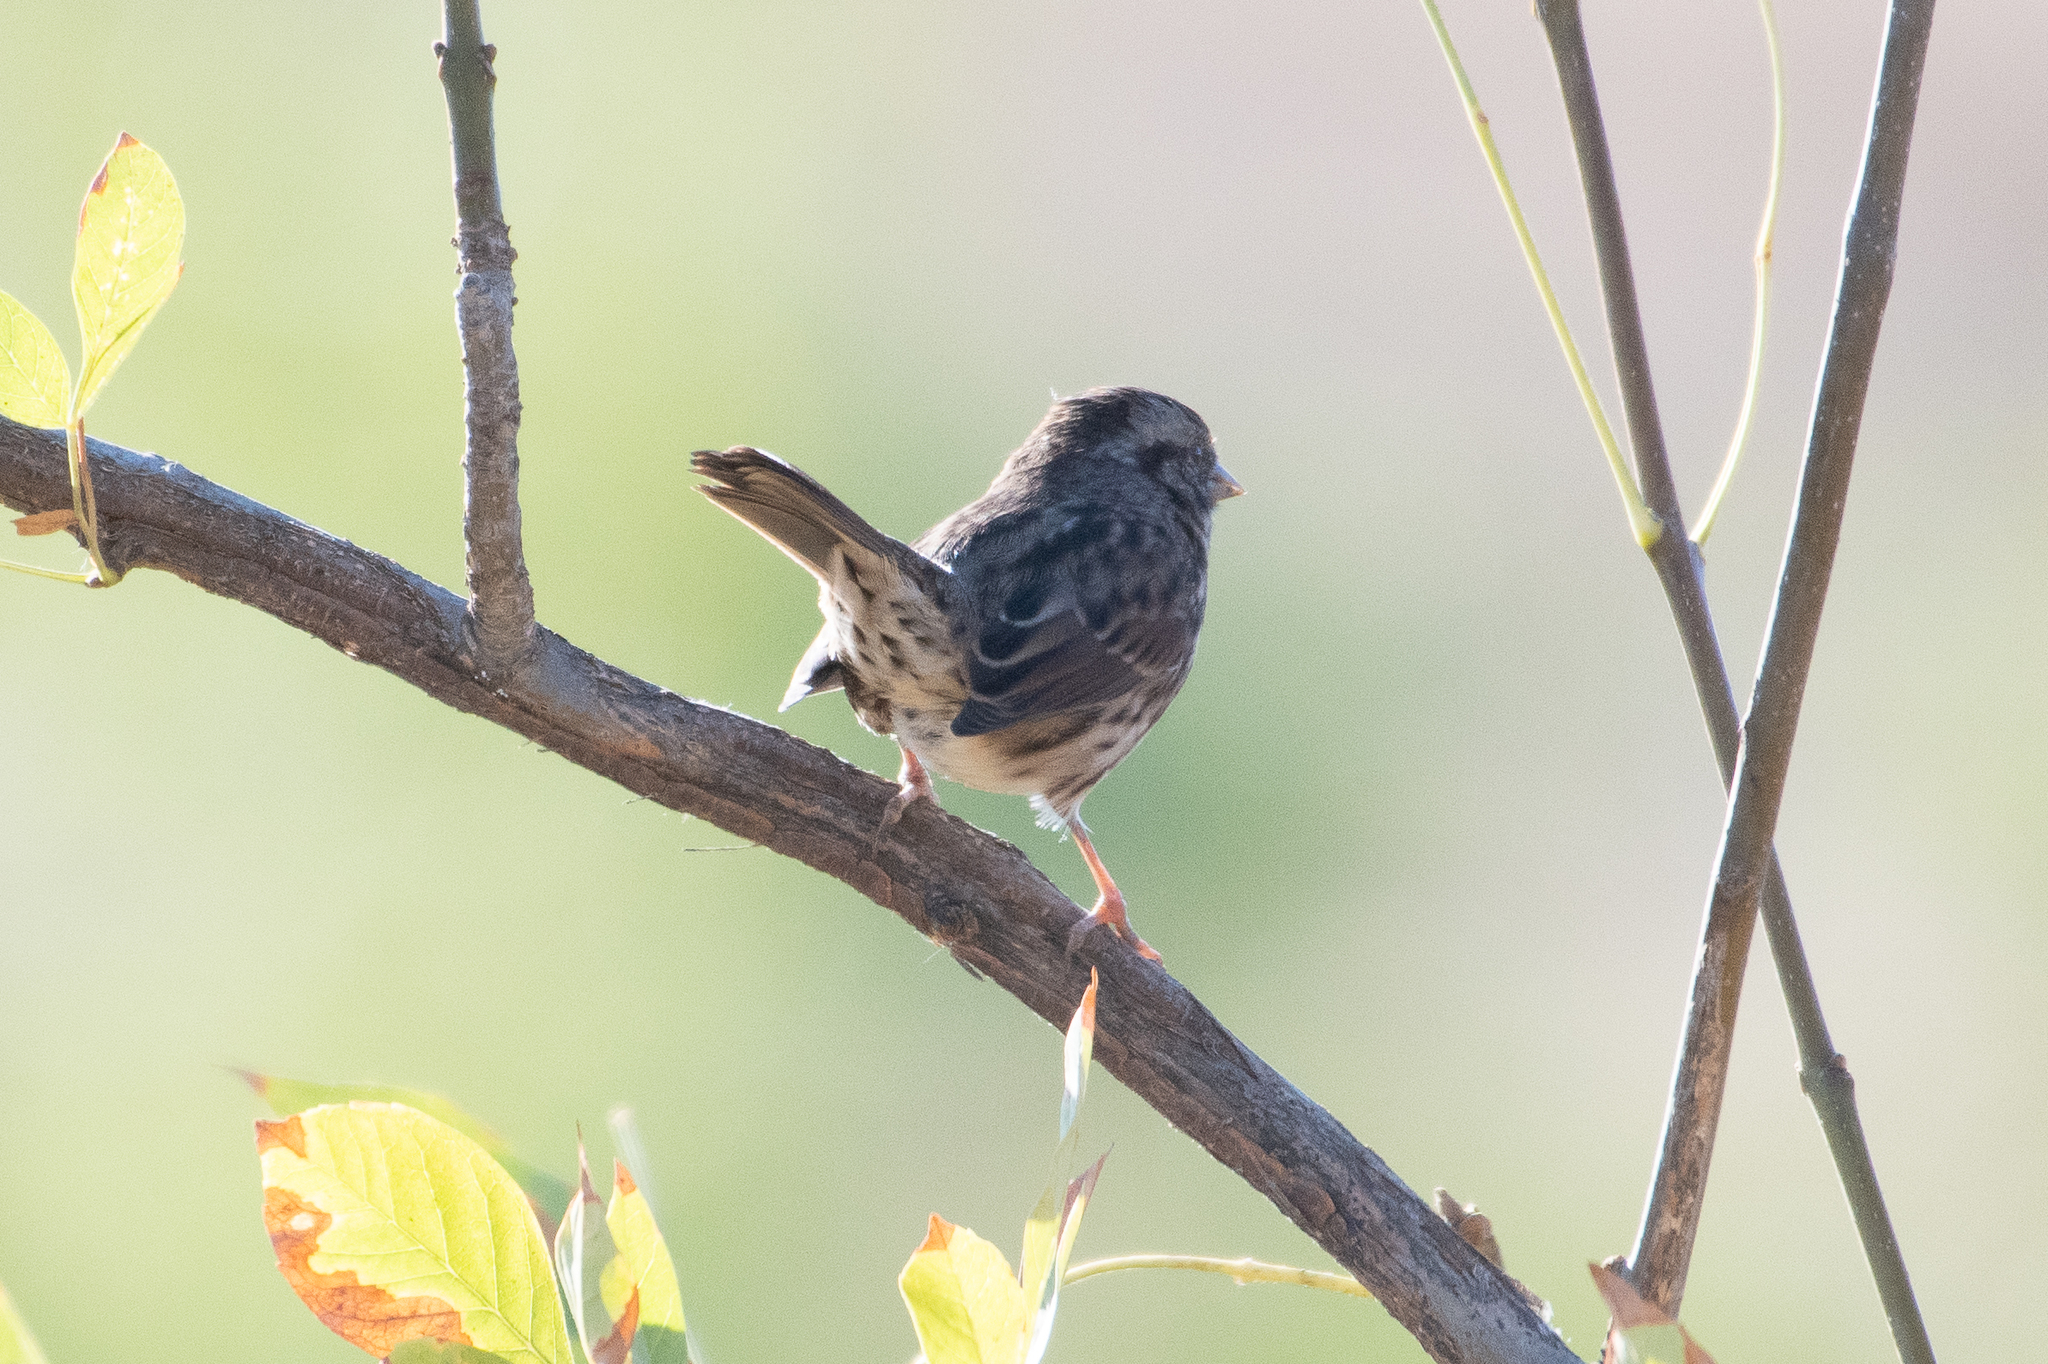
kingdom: Animalia
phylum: Chordata
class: Aves
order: Passeriformes
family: Passerellidae
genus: Melospiza
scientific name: Melospiza melodia
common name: Song sparrow
